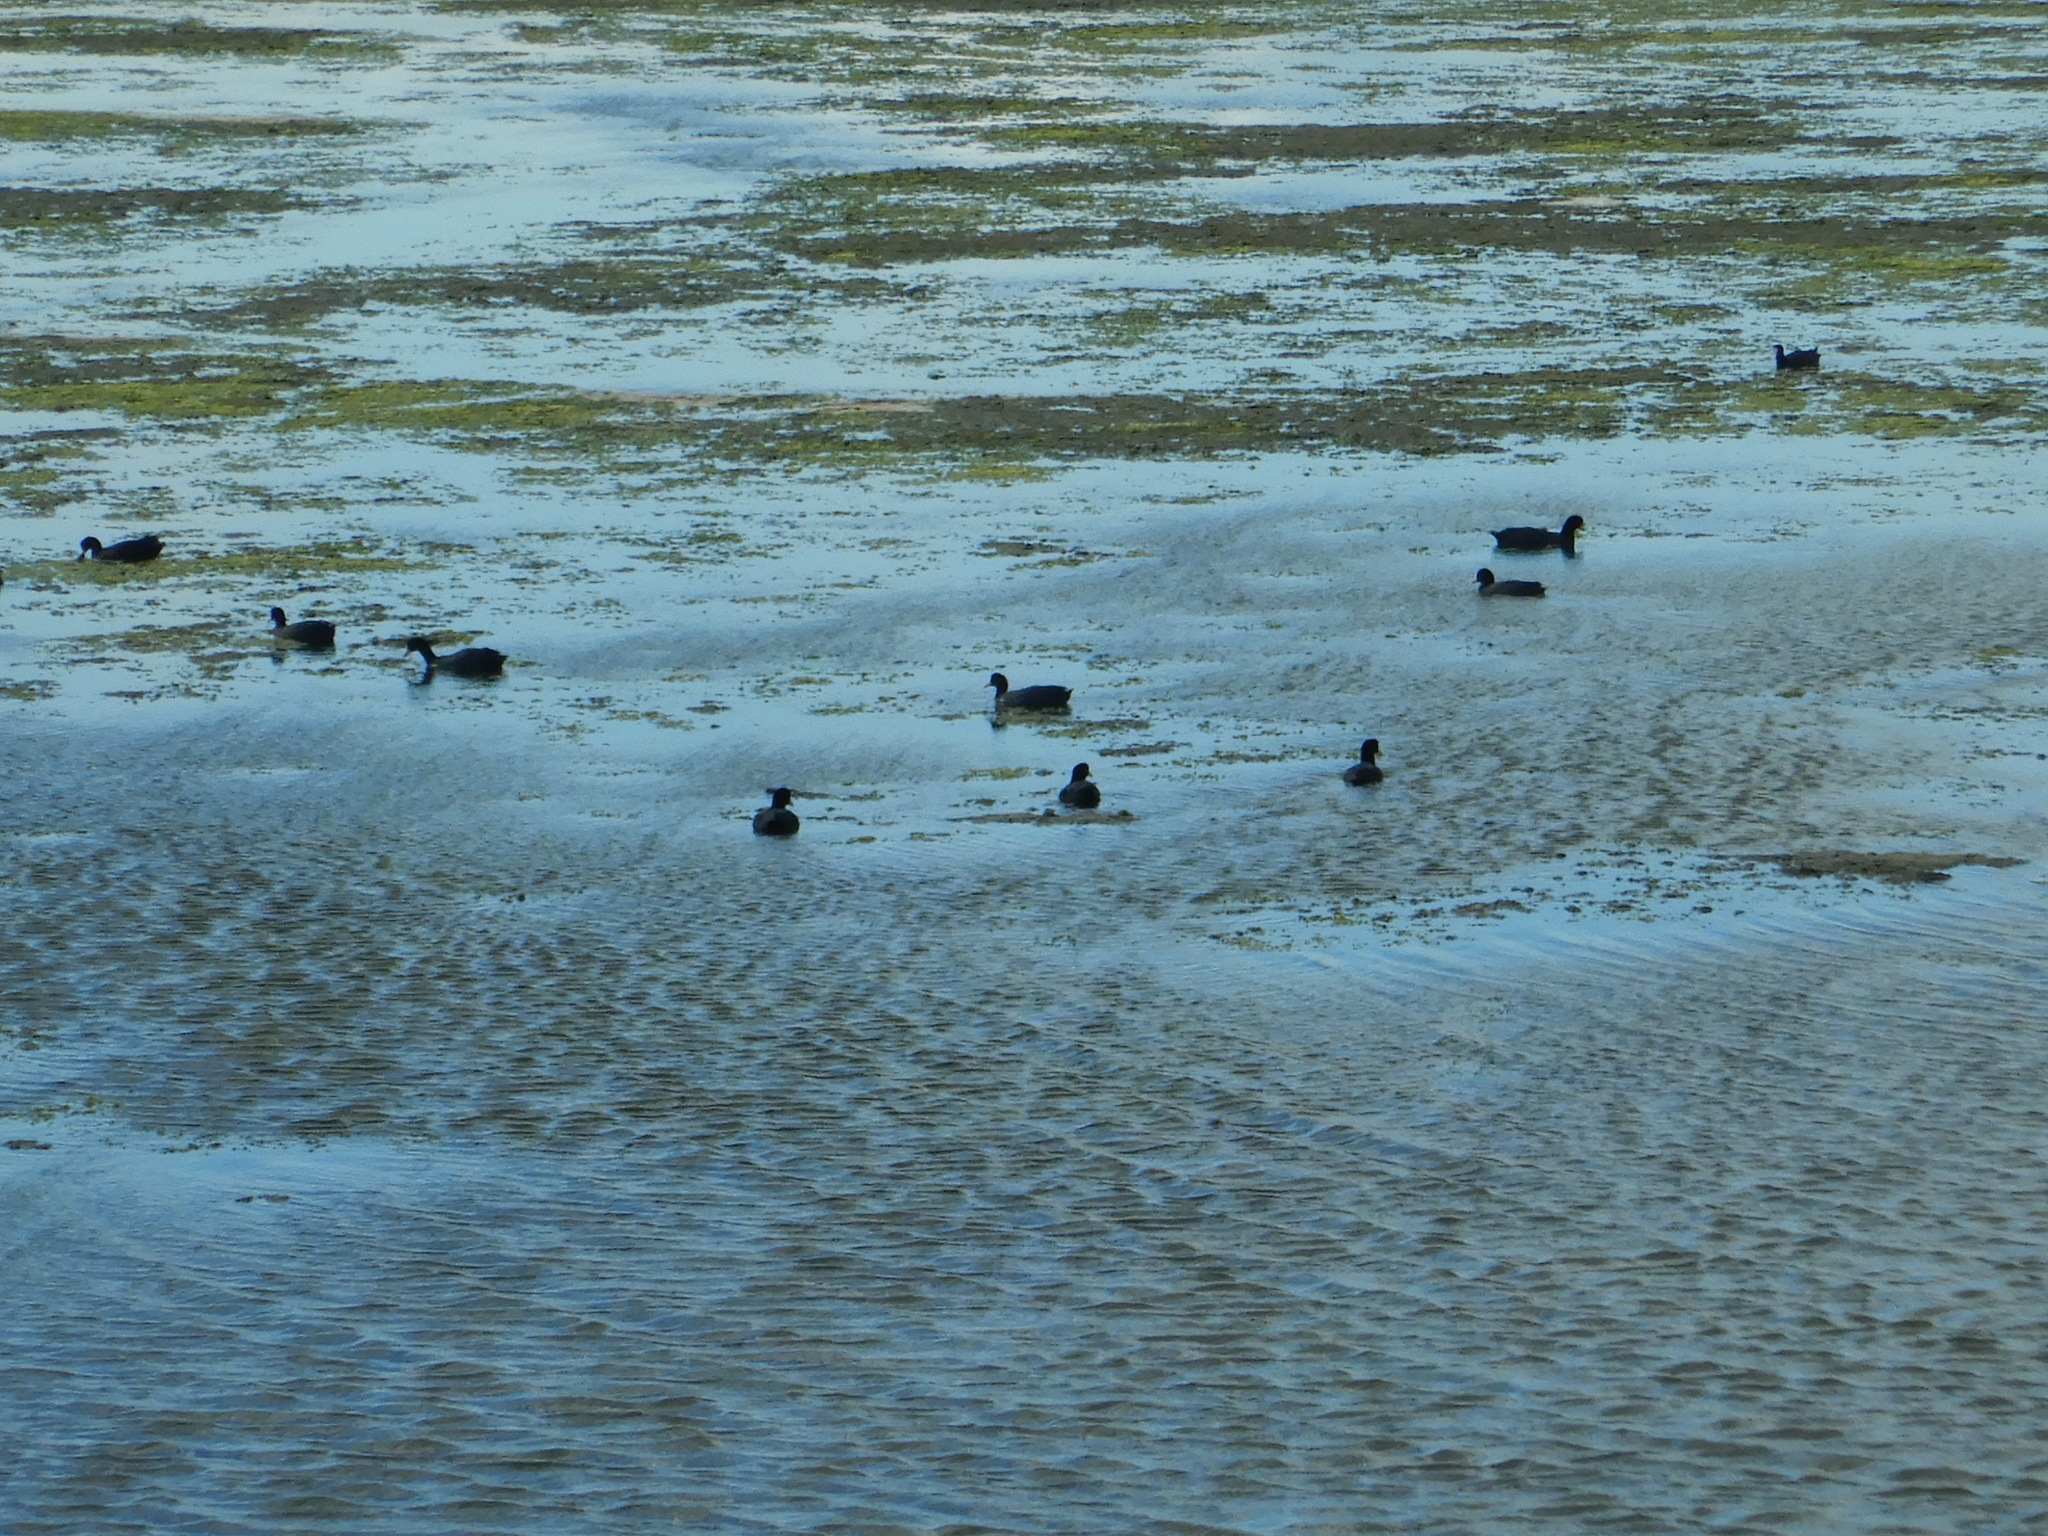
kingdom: Animalia
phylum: Chordata
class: Aves
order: Gruiformes
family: Rallidae
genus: Fulica
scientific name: Fulica atra
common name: Eurasian coot
